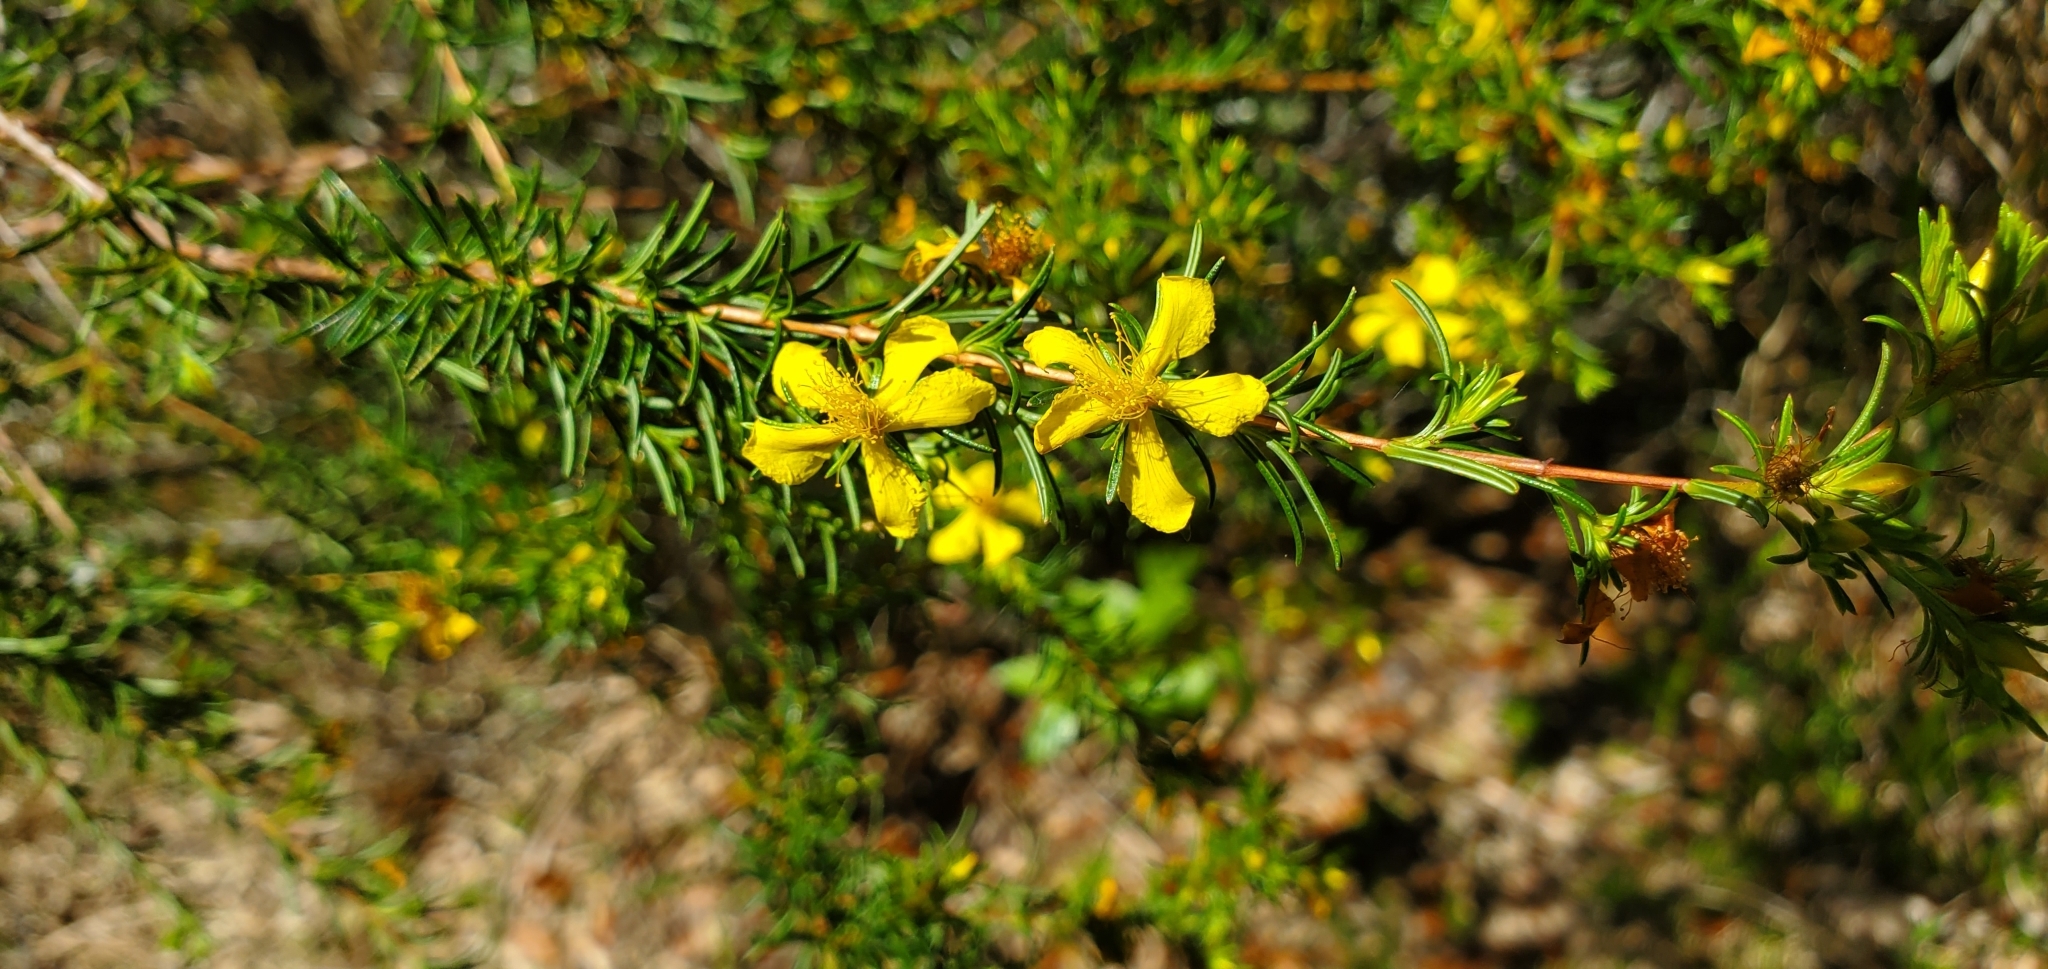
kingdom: Plantae
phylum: Tracheophyta
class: Magnoliopsida
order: Malpighiales
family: Hypericaceae
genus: Hypericum
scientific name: Hypericum fasciculatum
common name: Peelbark st. john's wort
